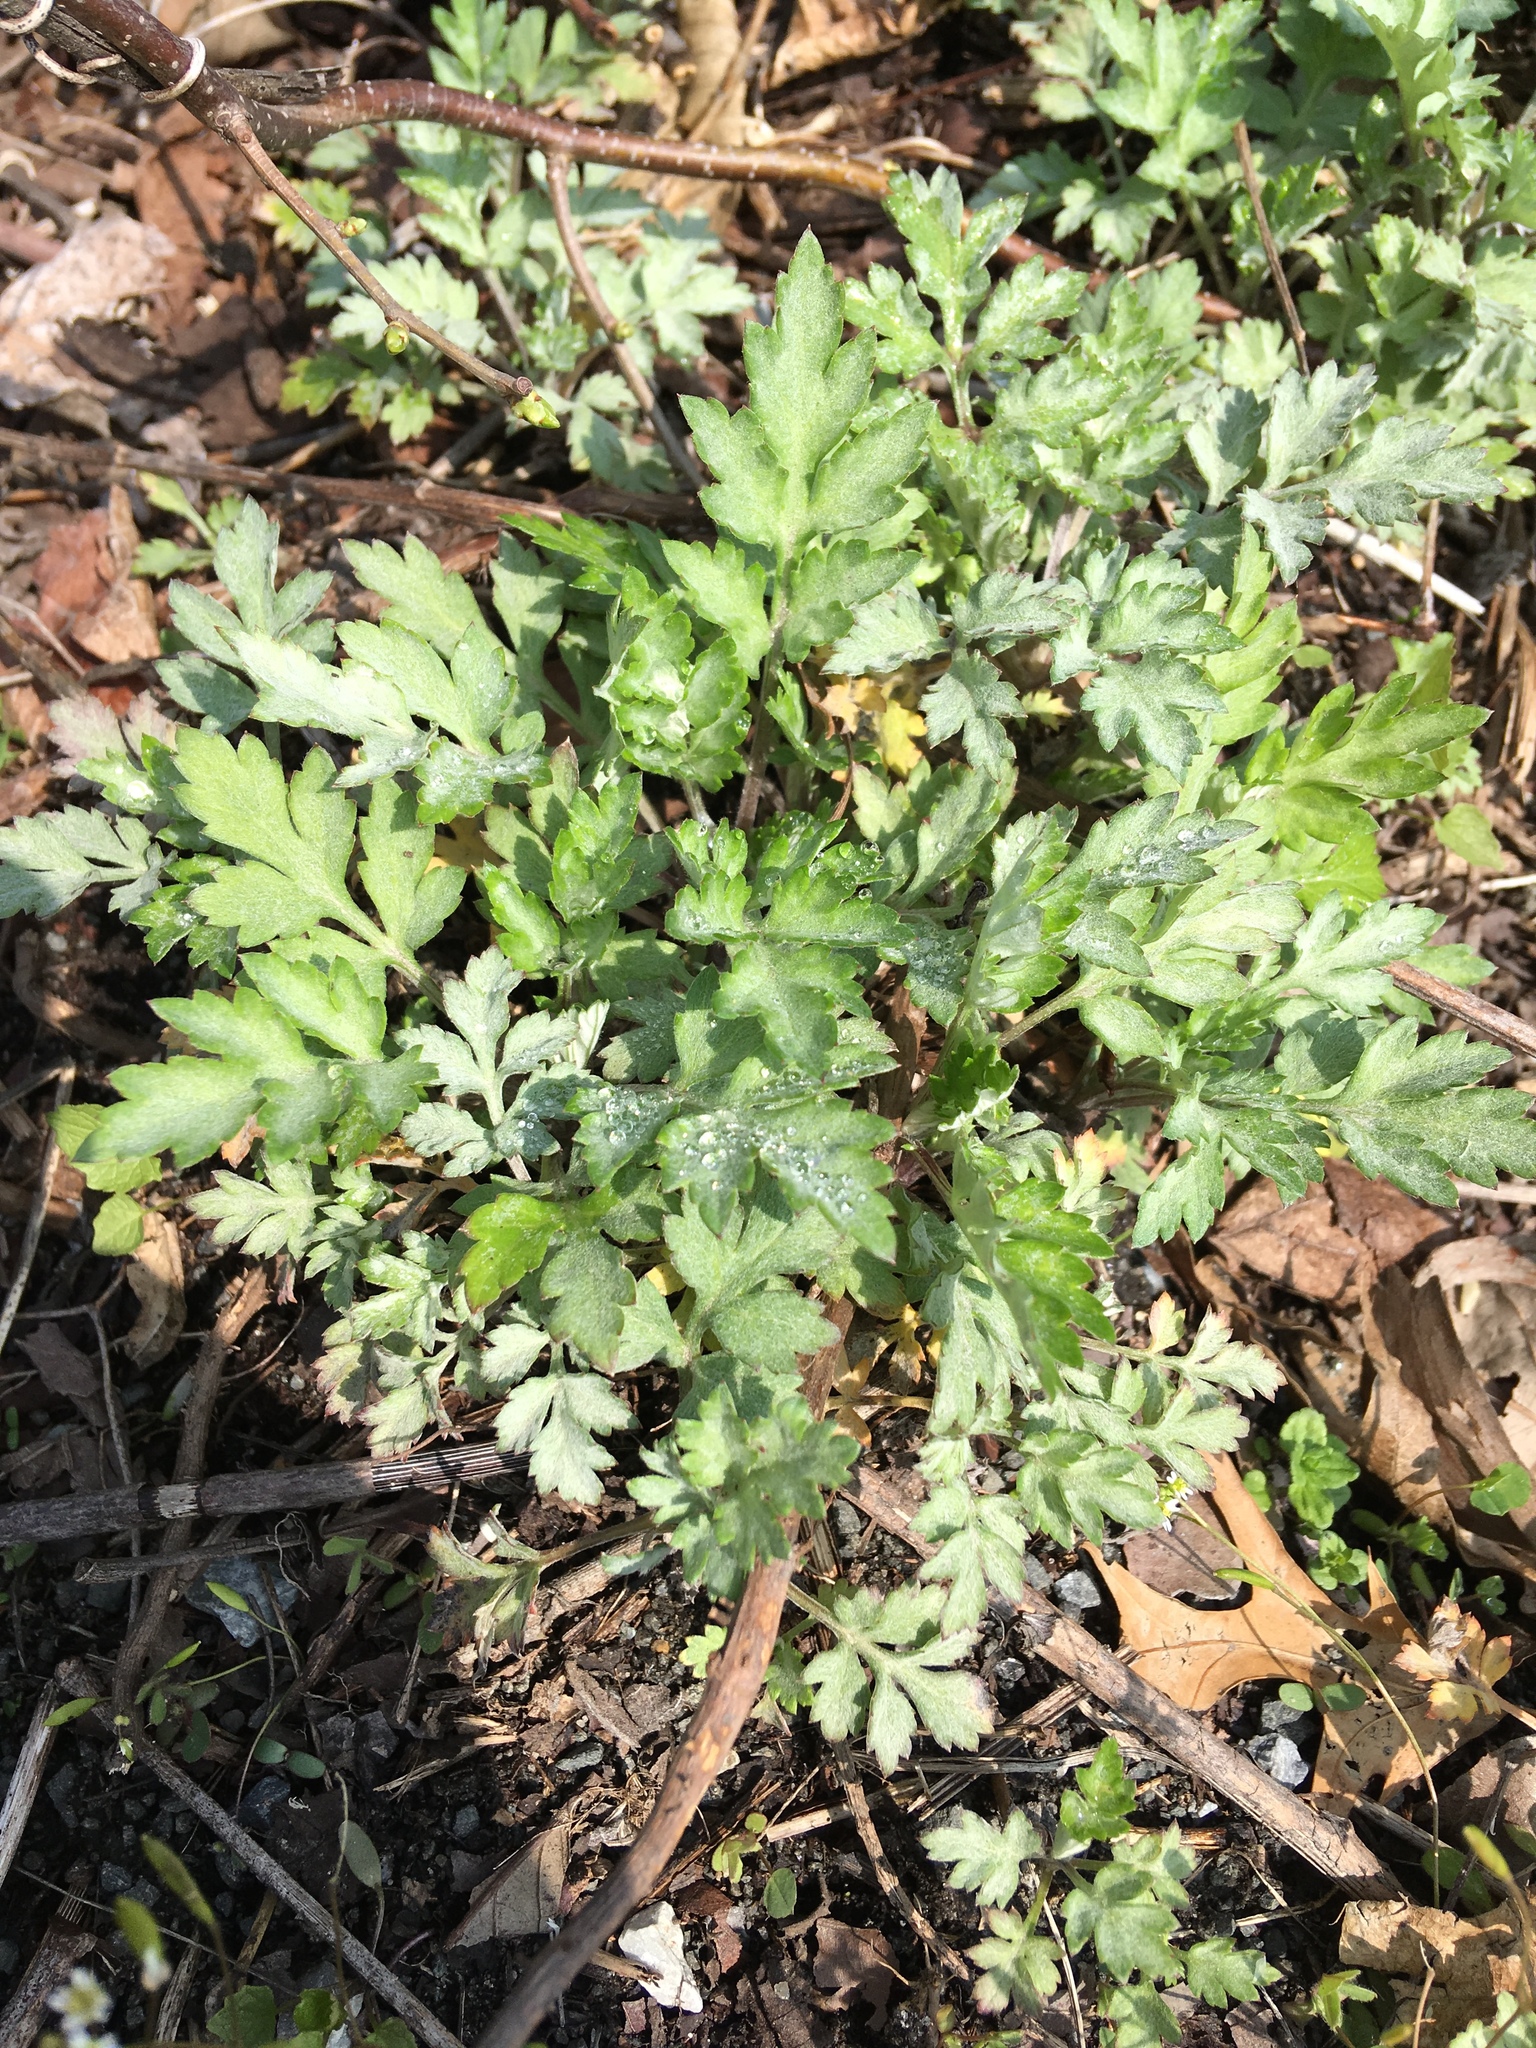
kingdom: Plantae
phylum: Tracheophyta
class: Magnoliopsida
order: Asterales
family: Asteraceae
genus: Artemisia
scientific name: Artemisia vulgaris
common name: Mugwort
